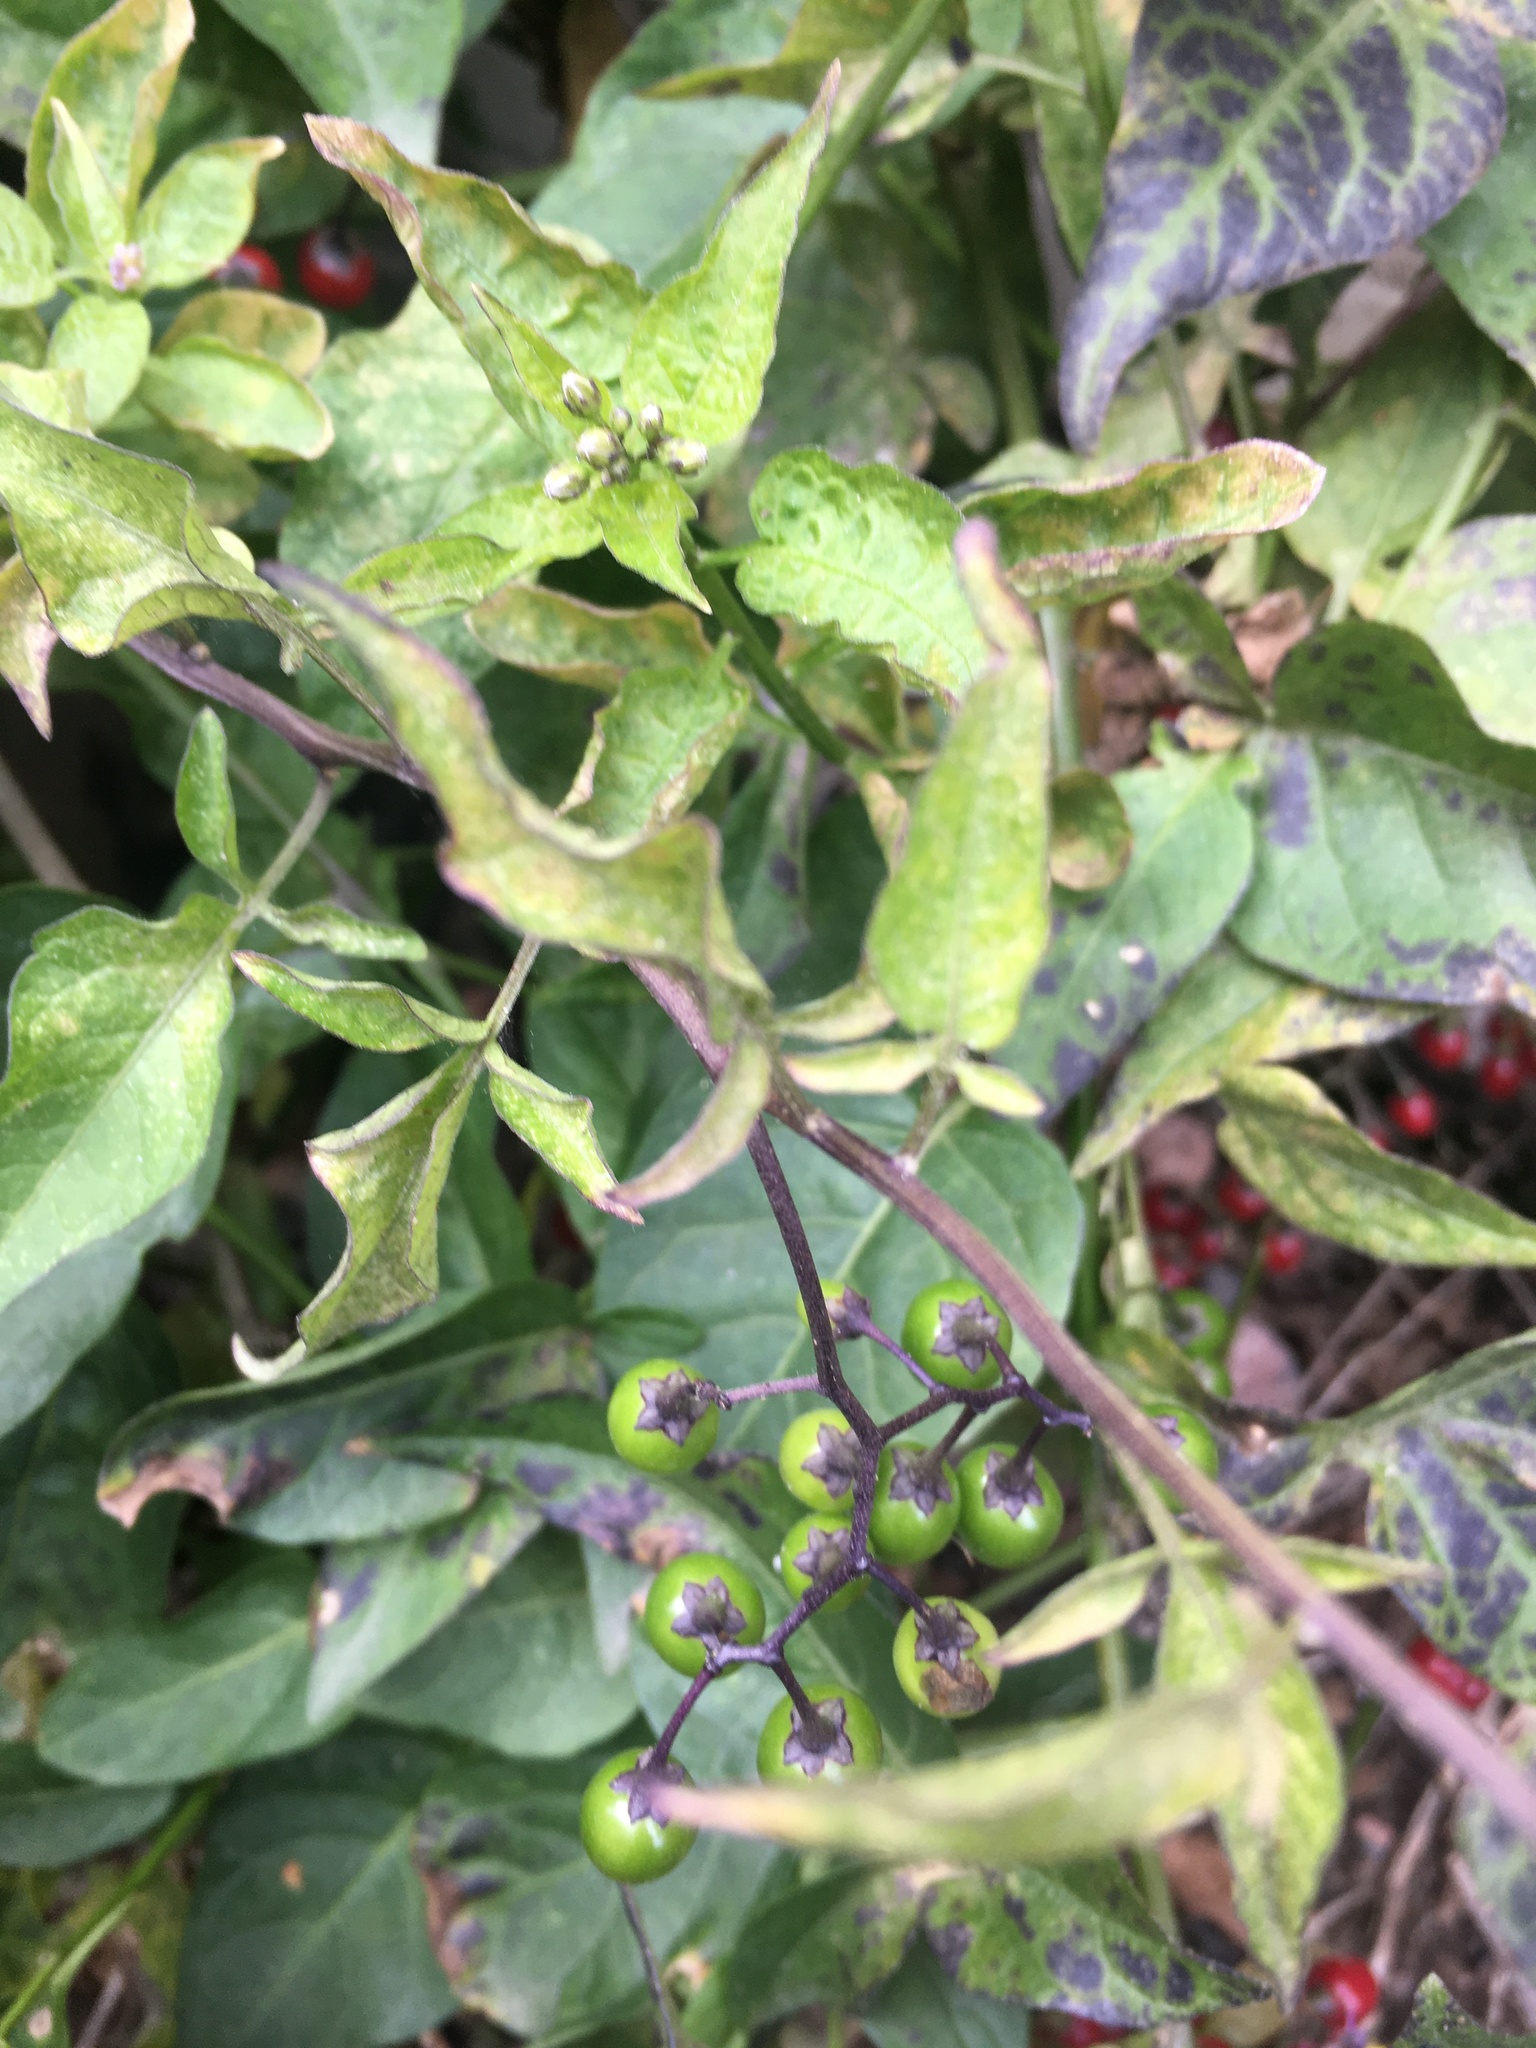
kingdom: Plantae
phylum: Tracheophyta
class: Magnoliopsida
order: Solanales
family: Solanaceae
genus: Solanum
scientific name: Solanum dulcamara
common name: Climbing nightshade
